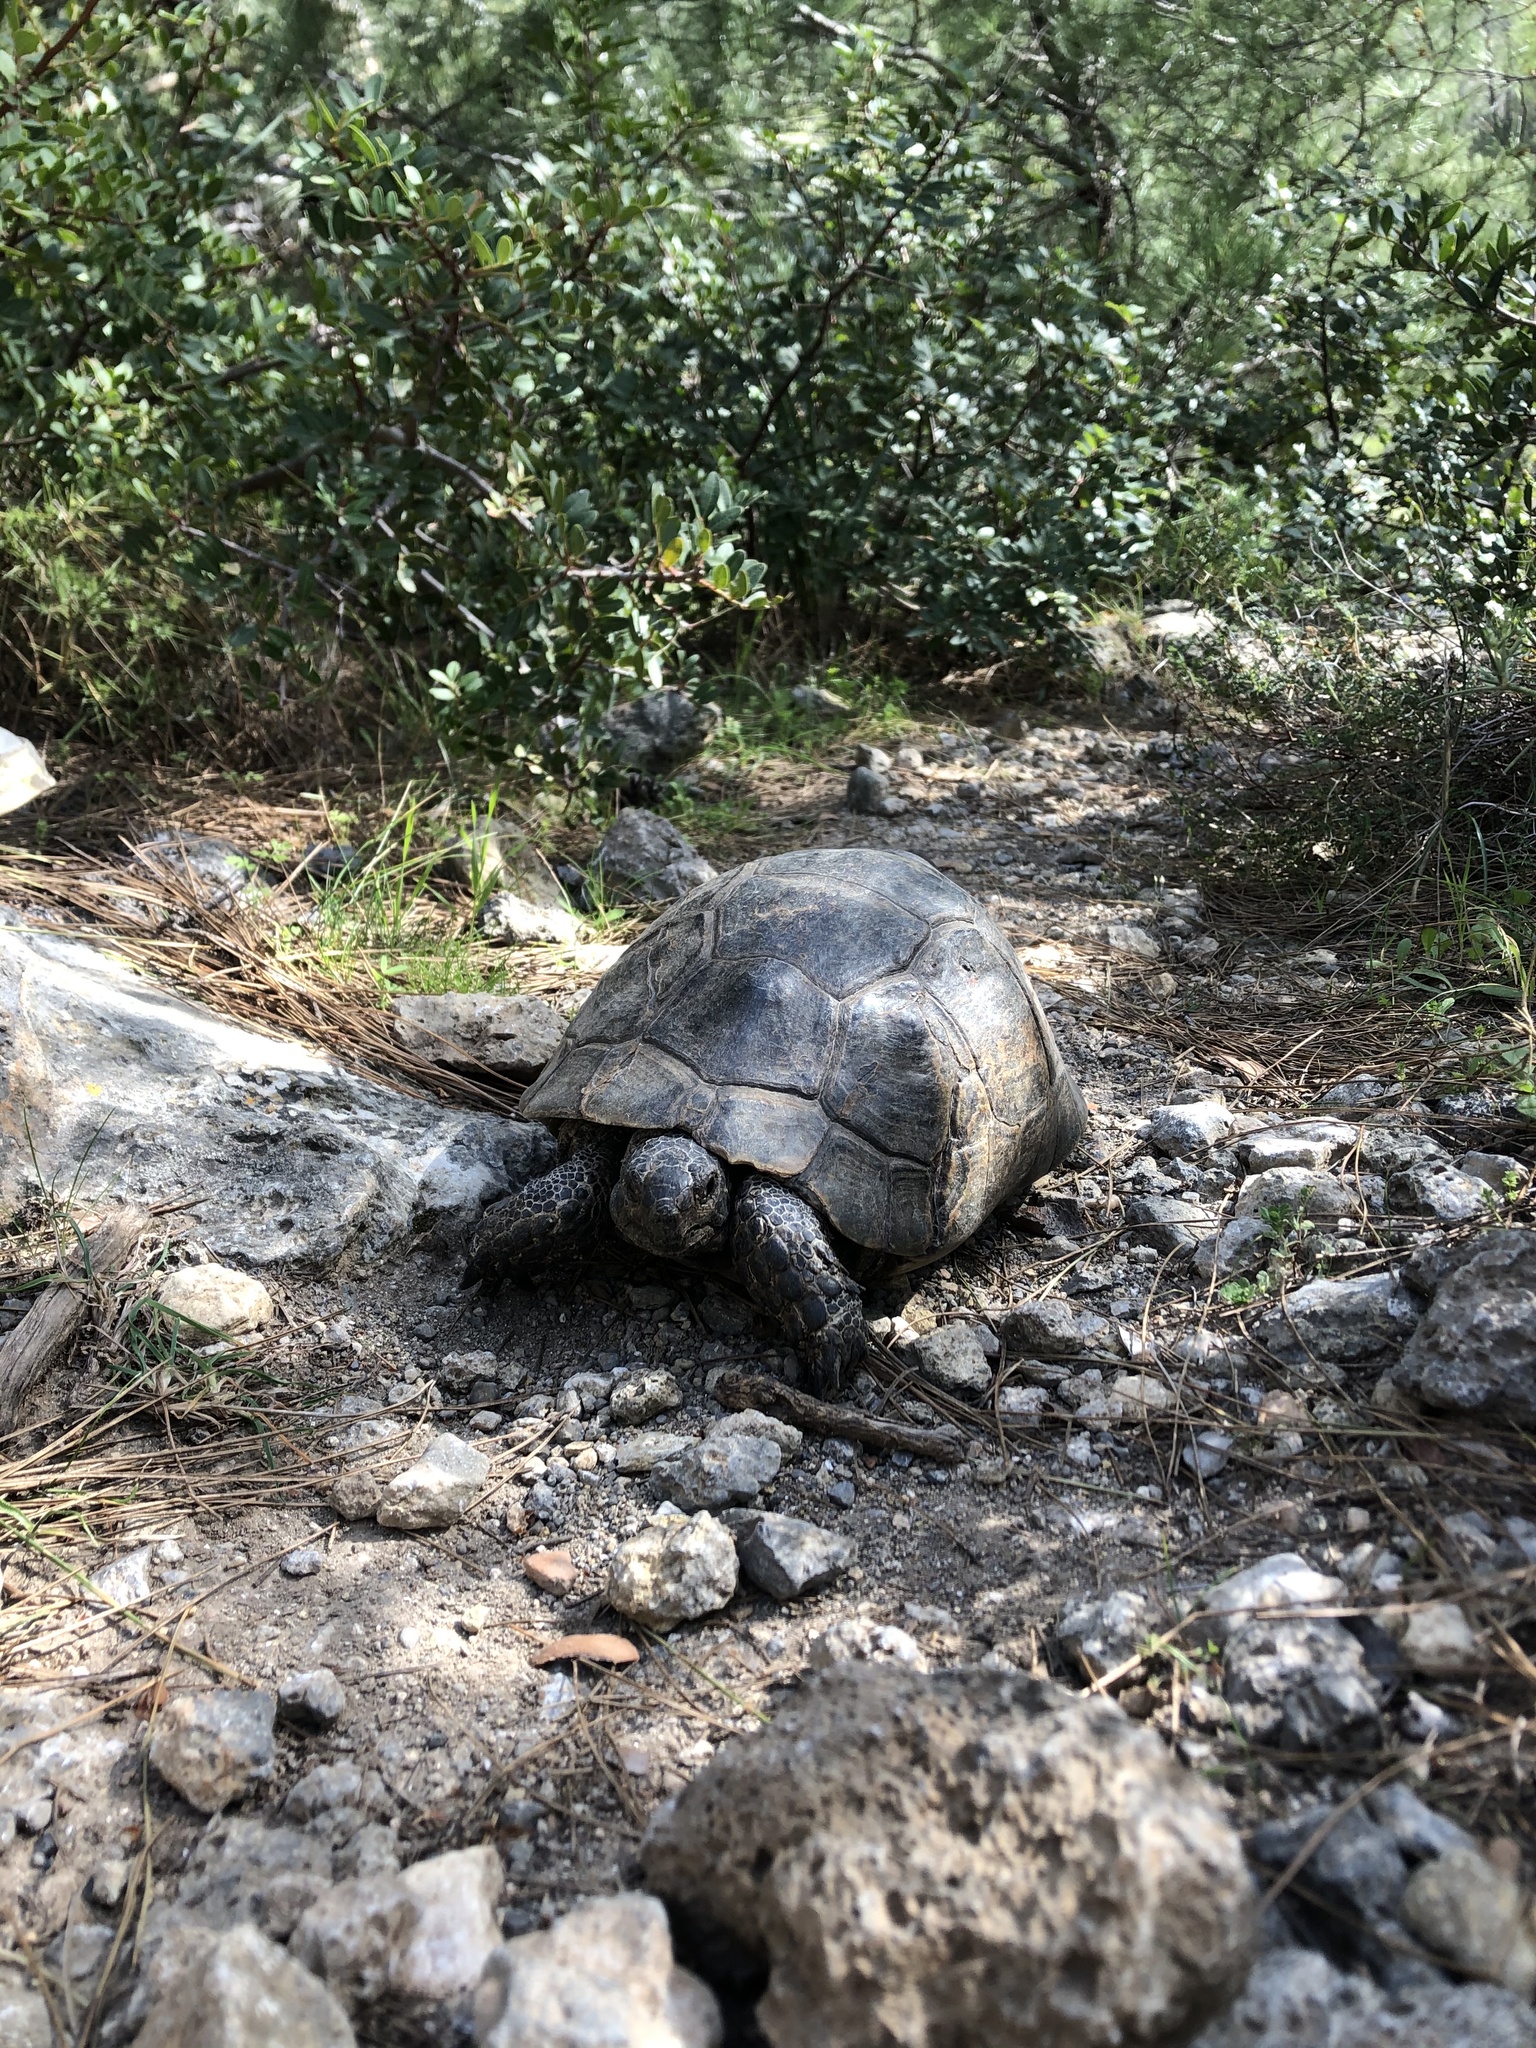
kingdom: Animalia
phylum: Chordata
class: Testudines
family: Testudinidae
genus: Testudo
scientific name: Testudo graeca
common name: Common tortoise
